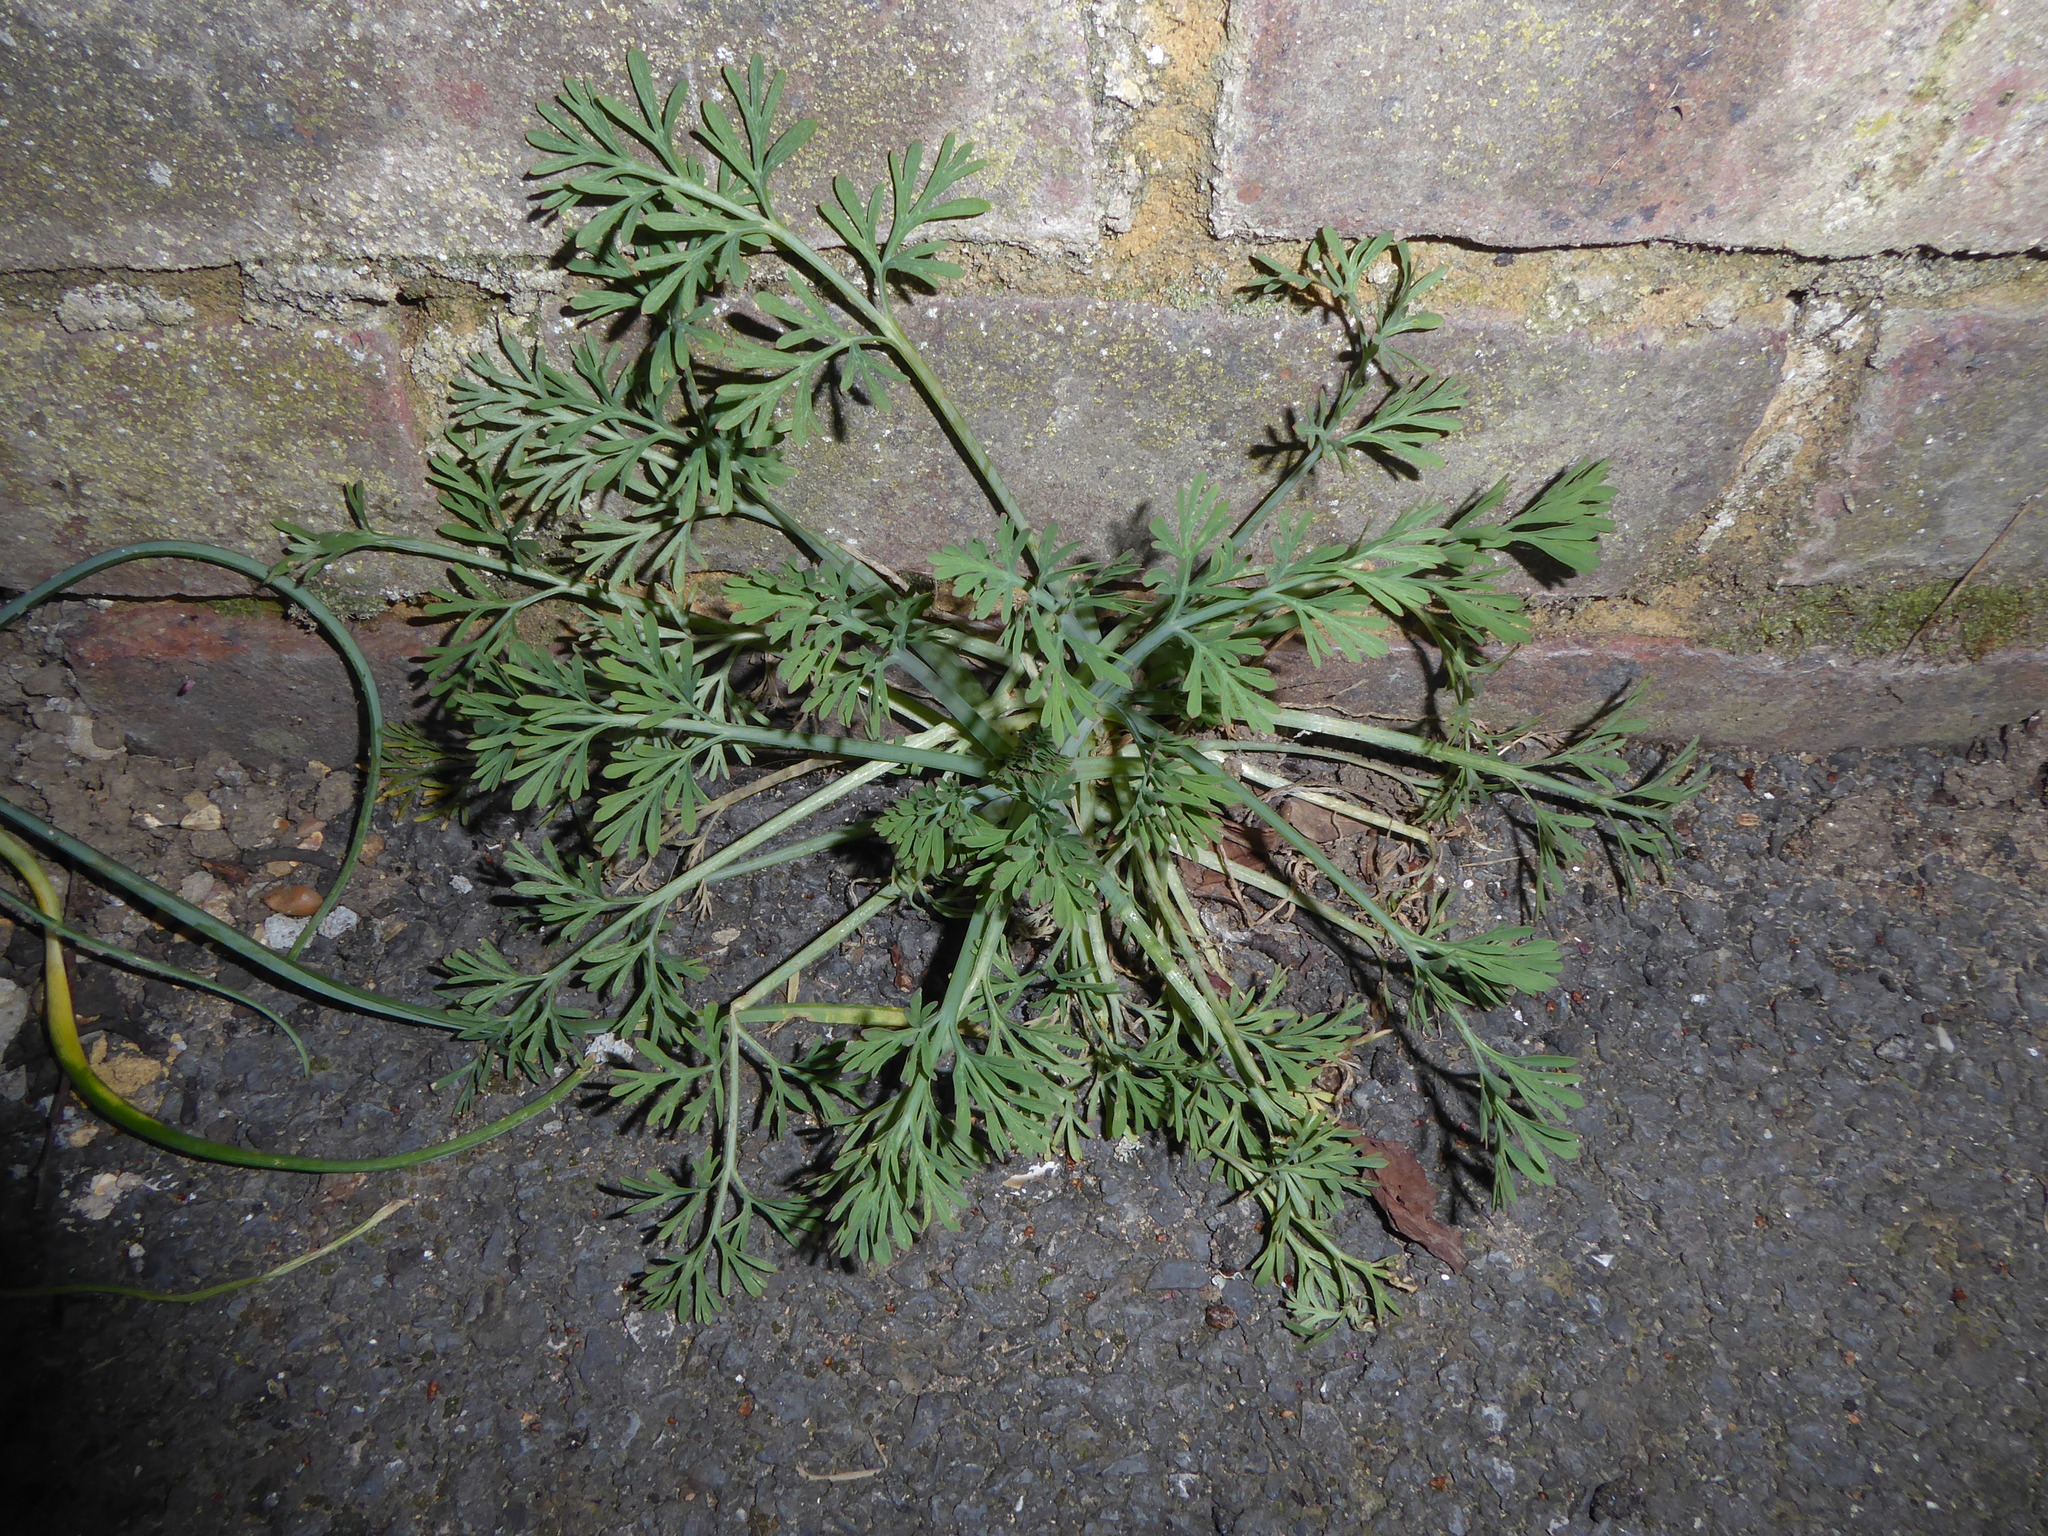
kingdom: Plantae
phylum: Tracheophyta
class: Magnoliopsida
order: Ranunculales
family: Papaveraceae
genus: Eschscholzia
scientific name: Eschscholzia californica
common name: California poppy
